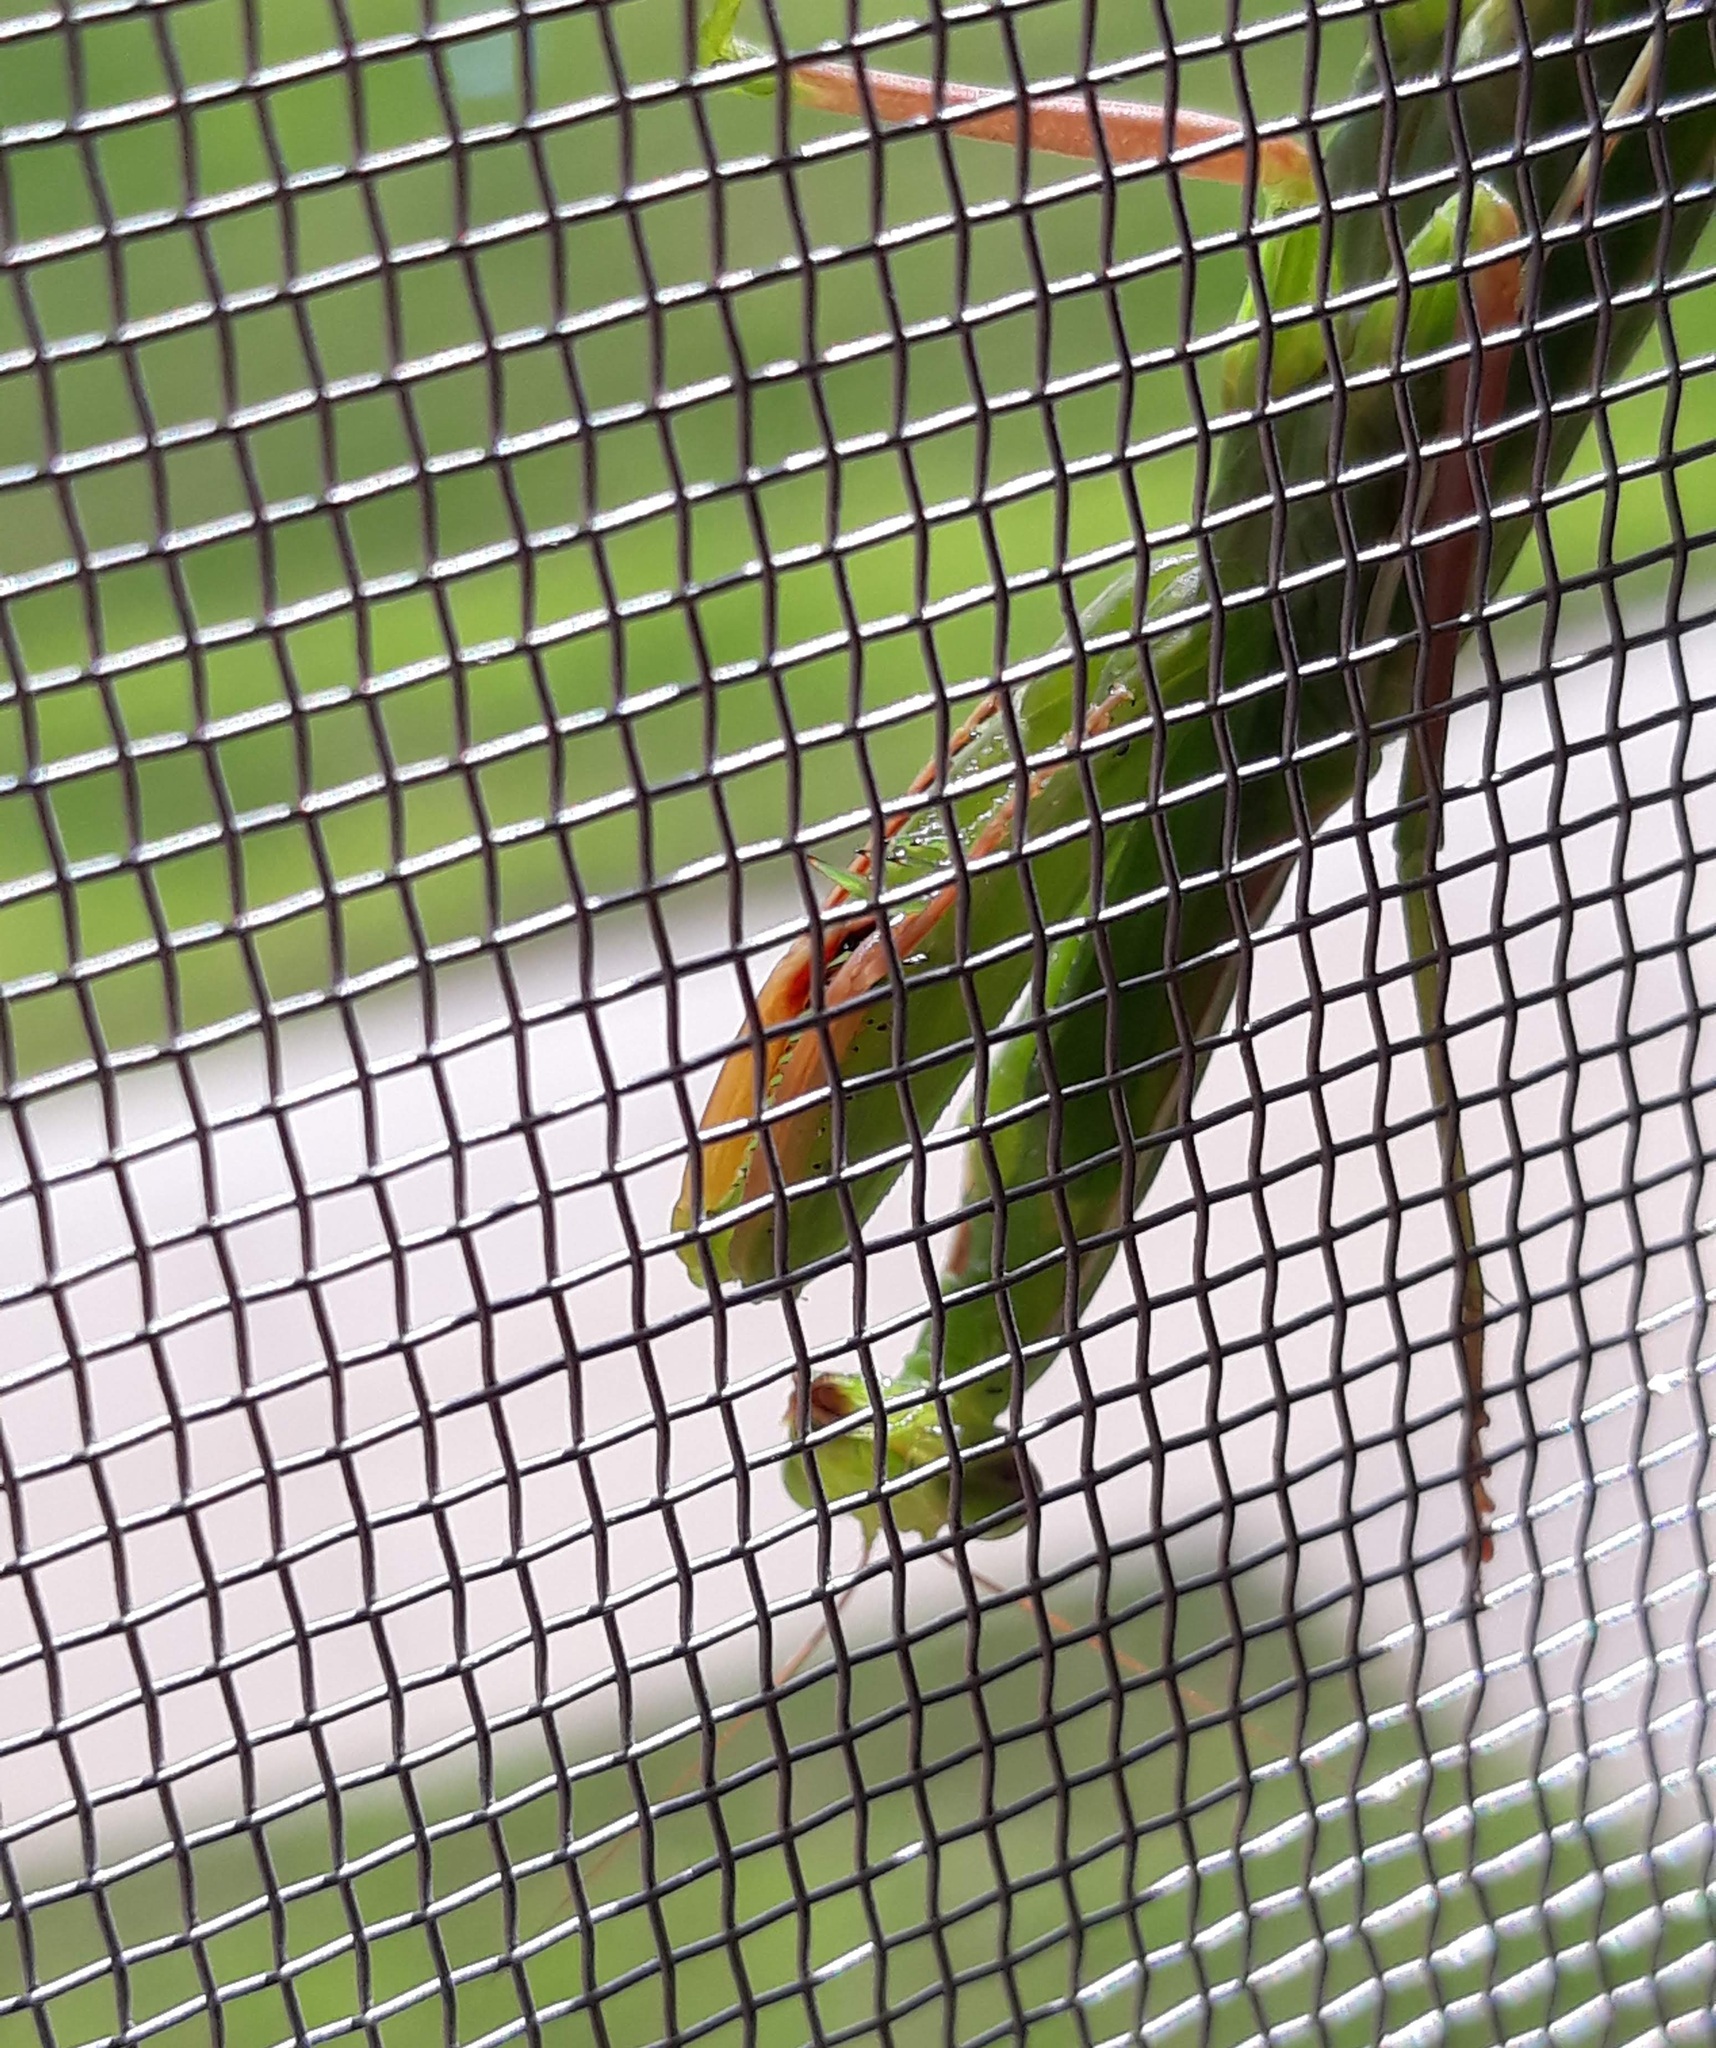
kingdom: Animalia
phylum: Arthropoda
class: Insecta
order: Mantodea
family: Mantidae
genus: Mantis
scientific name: Mantis religiosa
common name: Praying mantis
